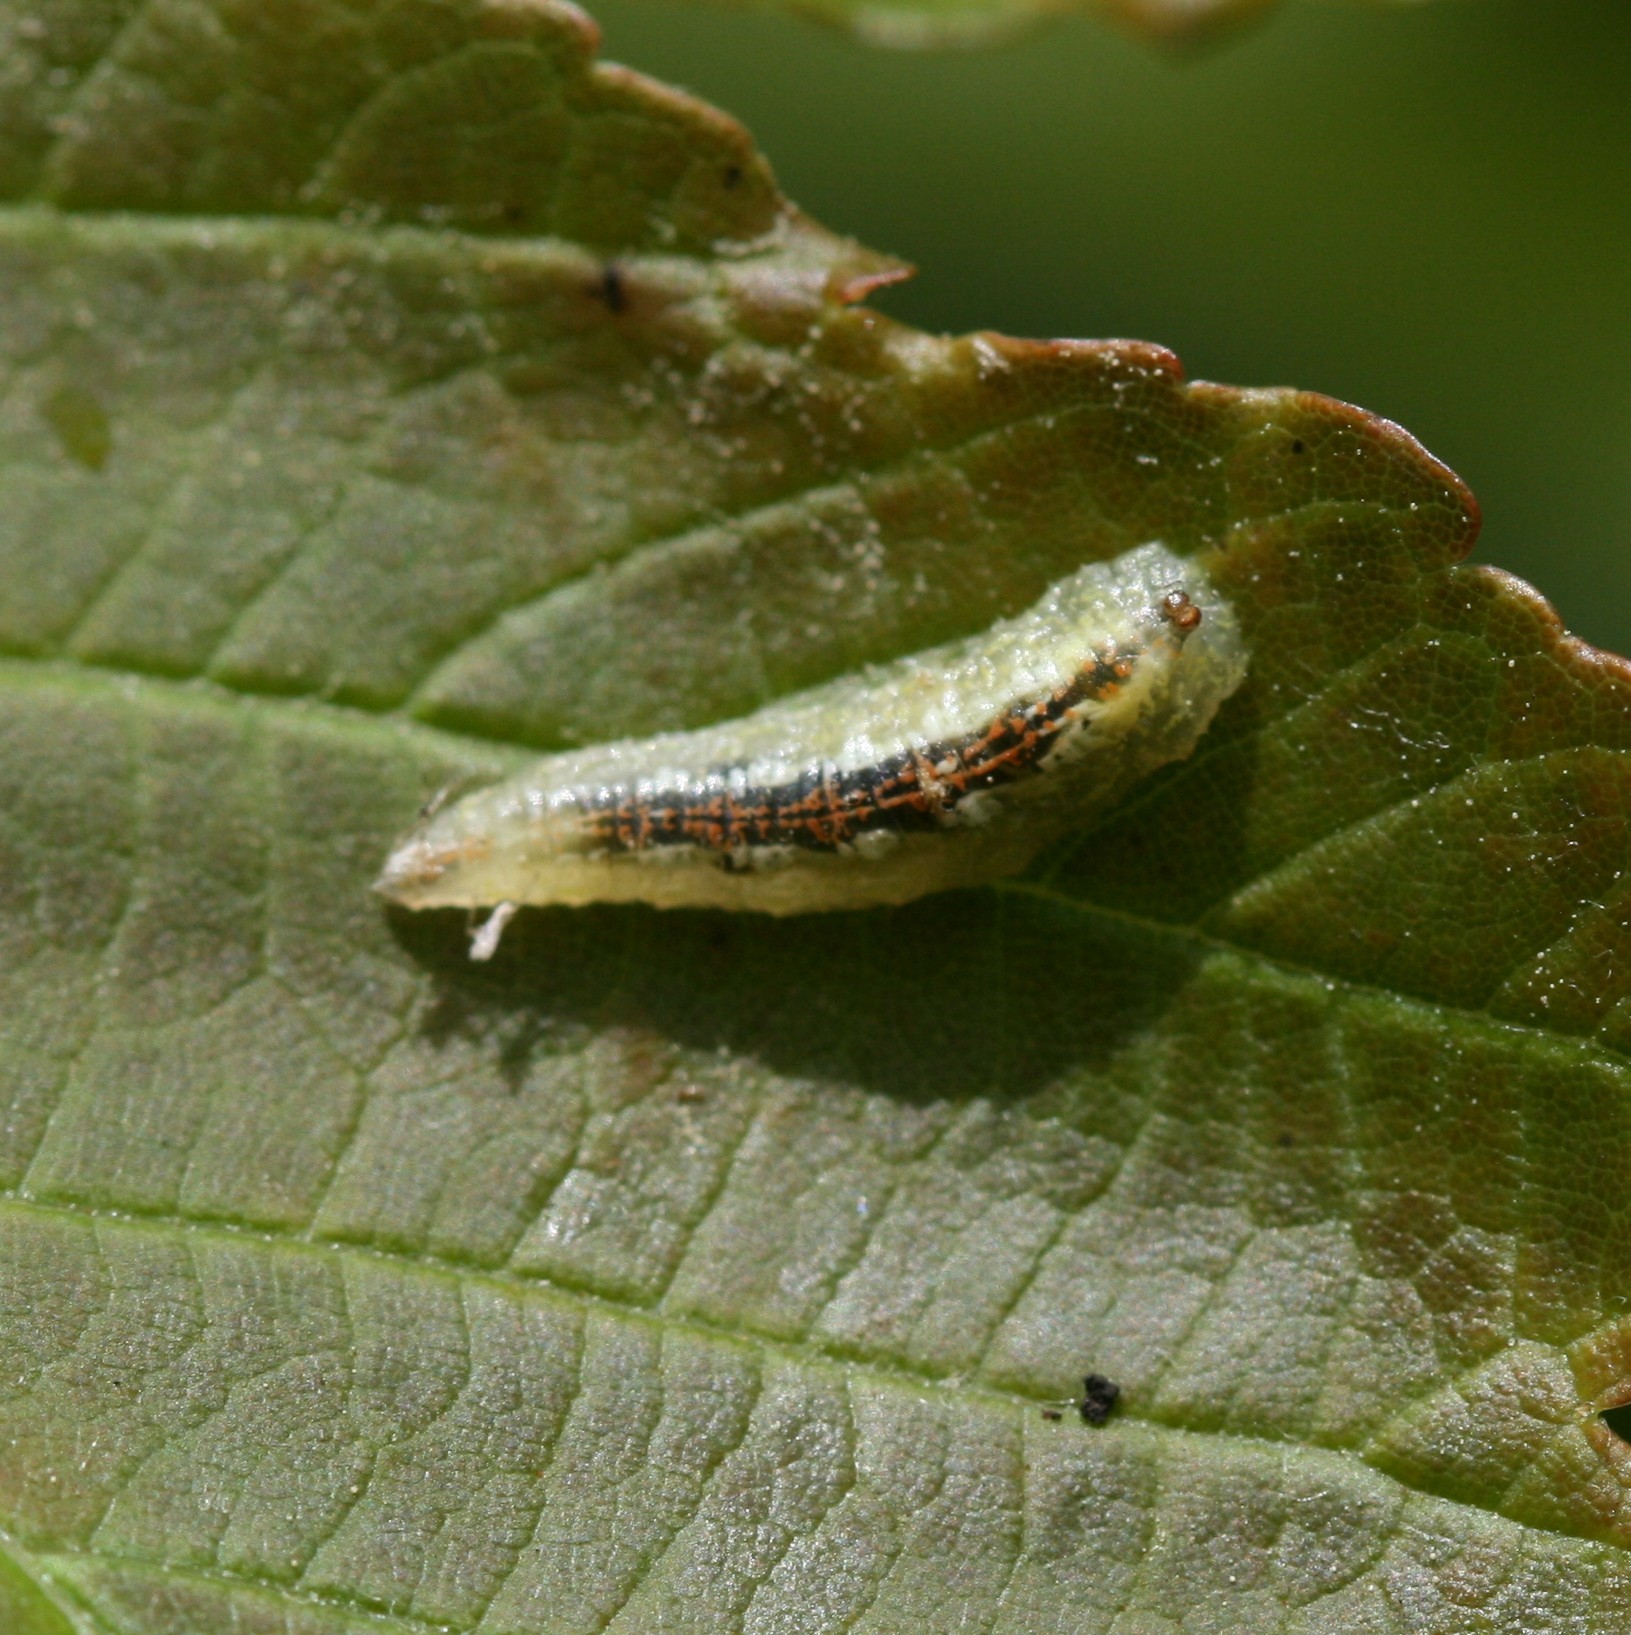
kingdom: Animalia
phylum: Arthropoda
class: Insecta
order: Diptera
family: Syrphidae
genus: Syrphus
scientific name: Syrphus
